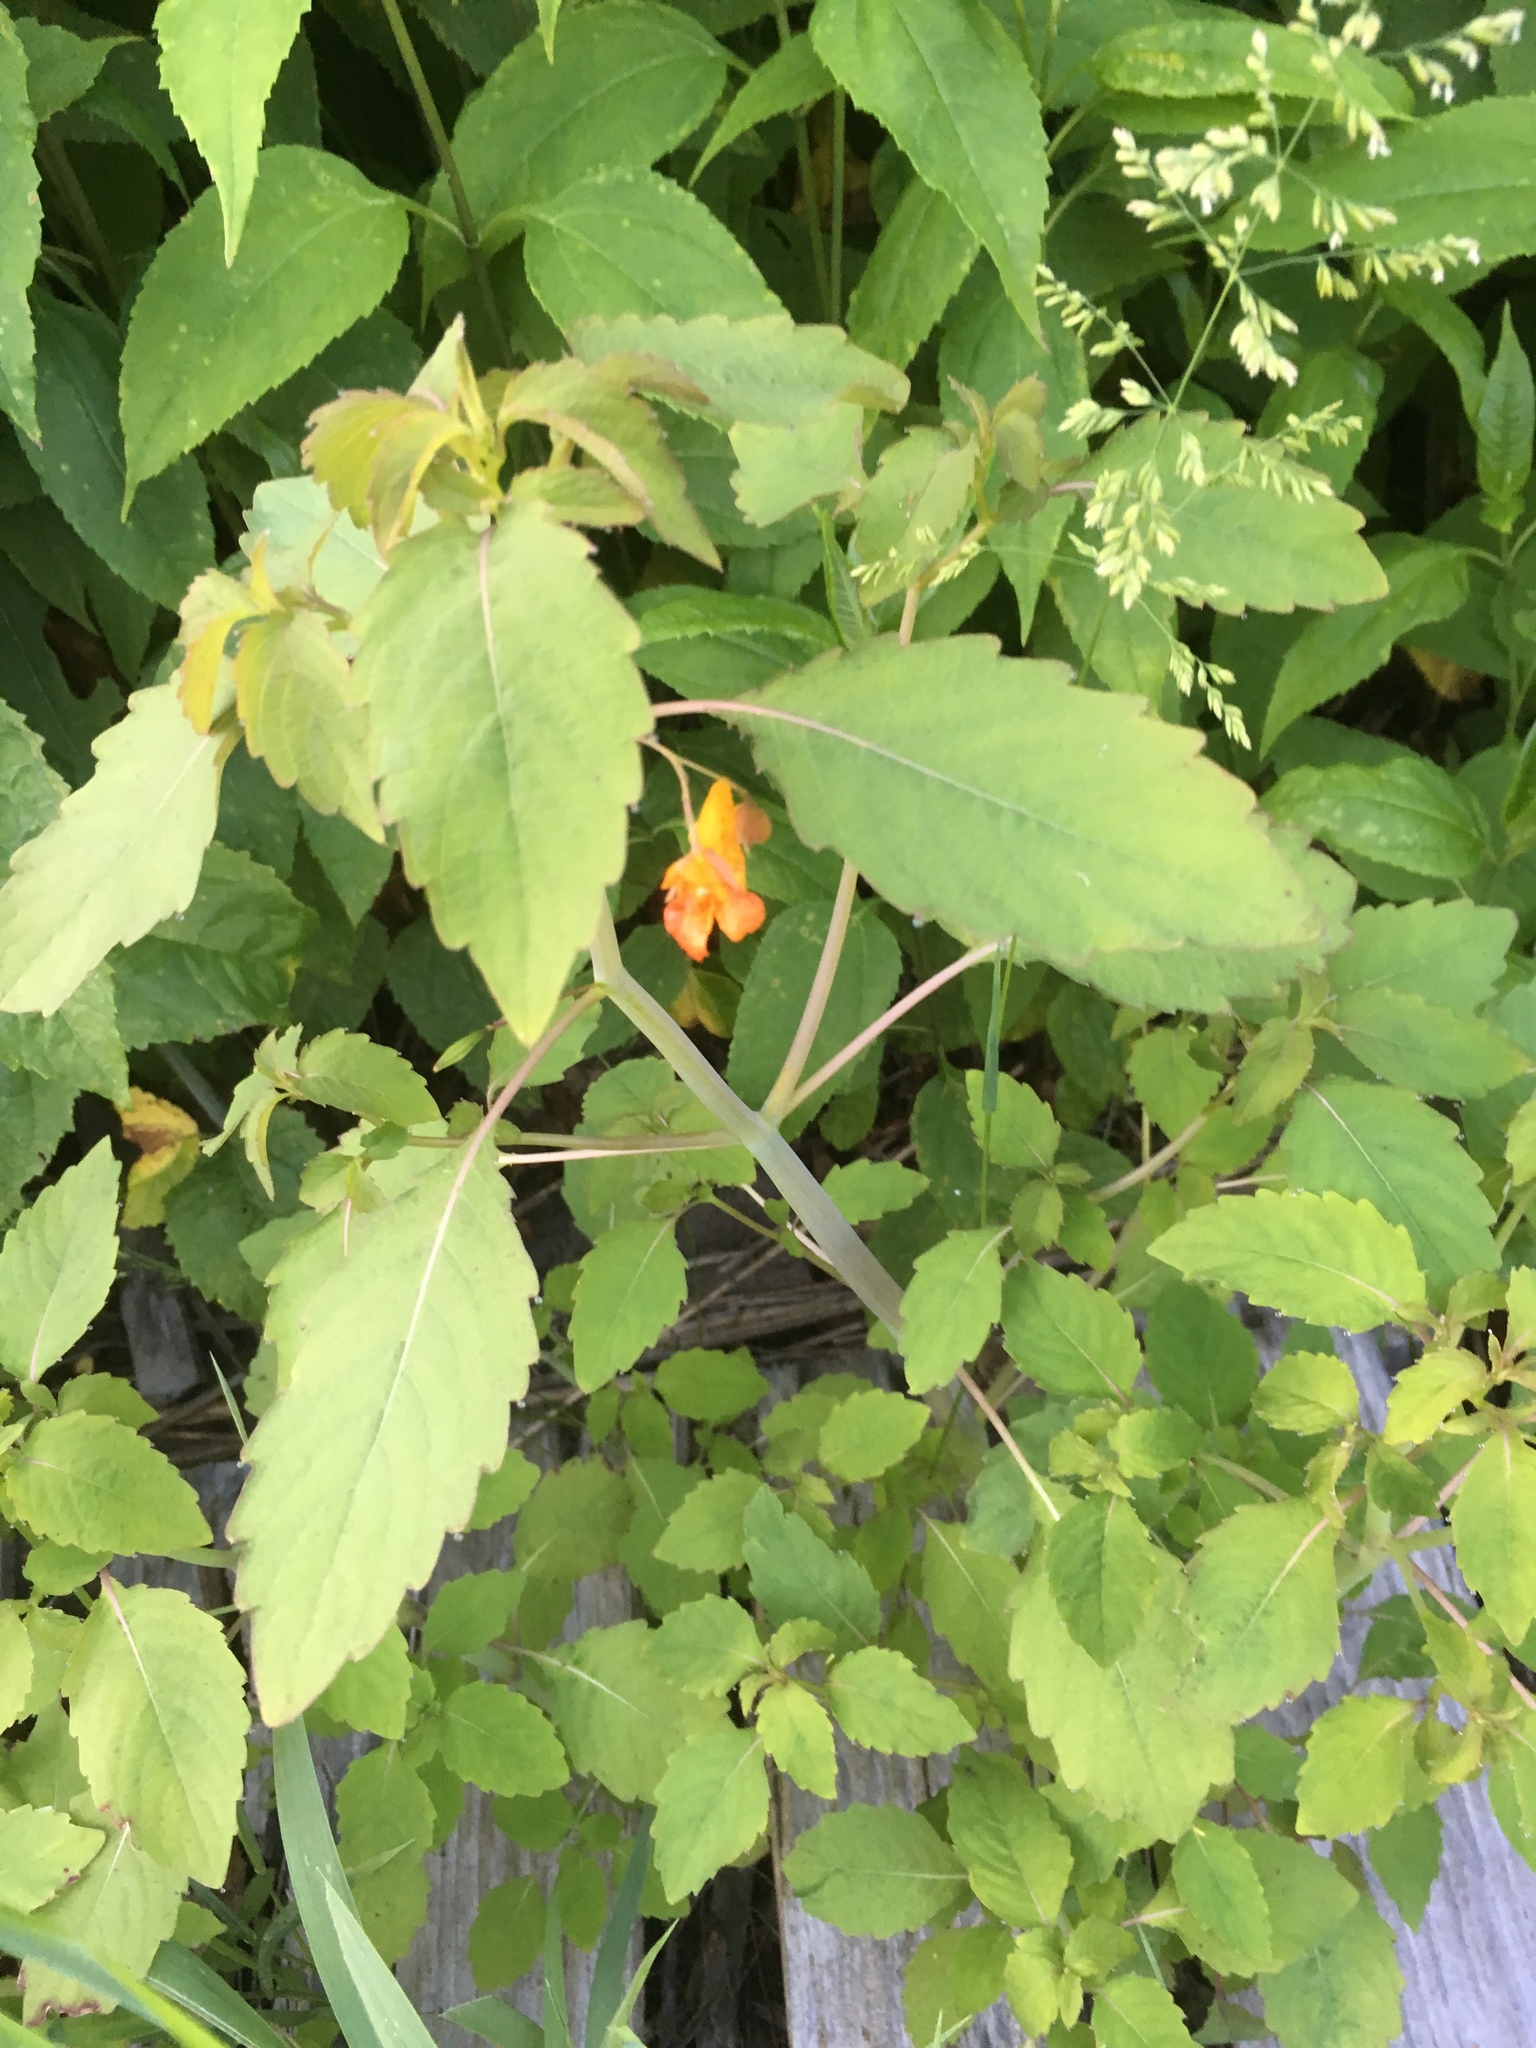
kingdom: Plantae
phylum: Tracheophyta
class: Magnoliopsida
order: Ericales
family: Balsaminaceae
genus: Impatiens
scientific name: Impatiens capensis
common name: Orange balsam
